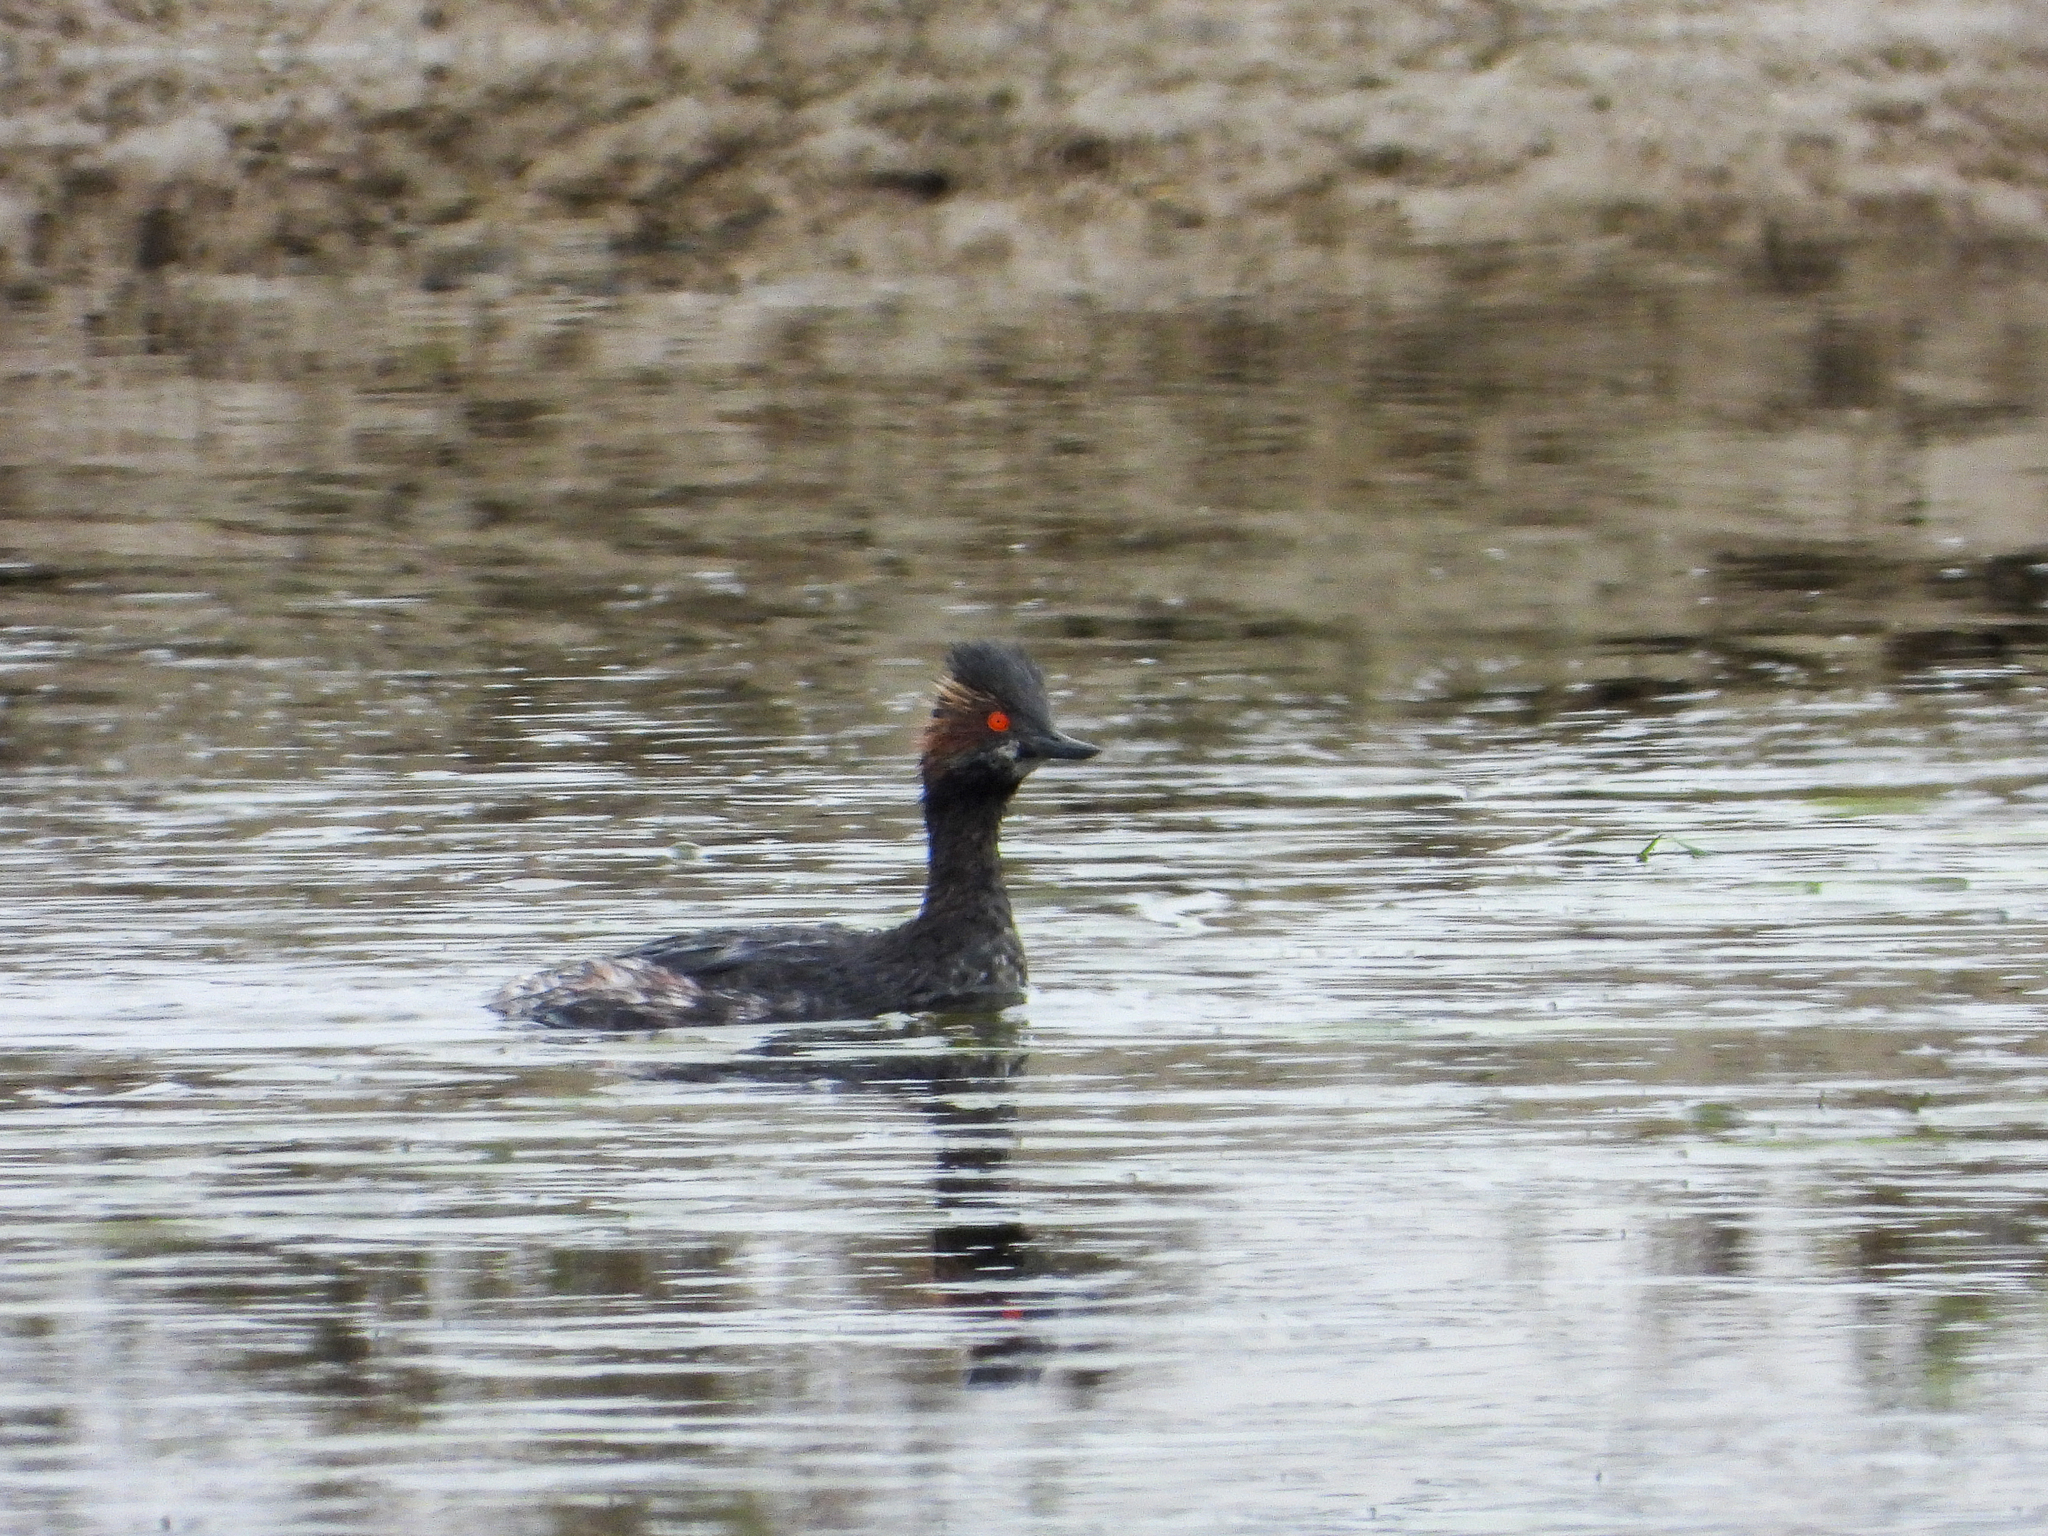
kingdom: Animalia
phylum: Chordata
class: Aves
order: Podicipediformes
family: Podicipedidae
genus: Podiceps
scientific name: Podiceps nigricollis
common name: Black-necked grebe
